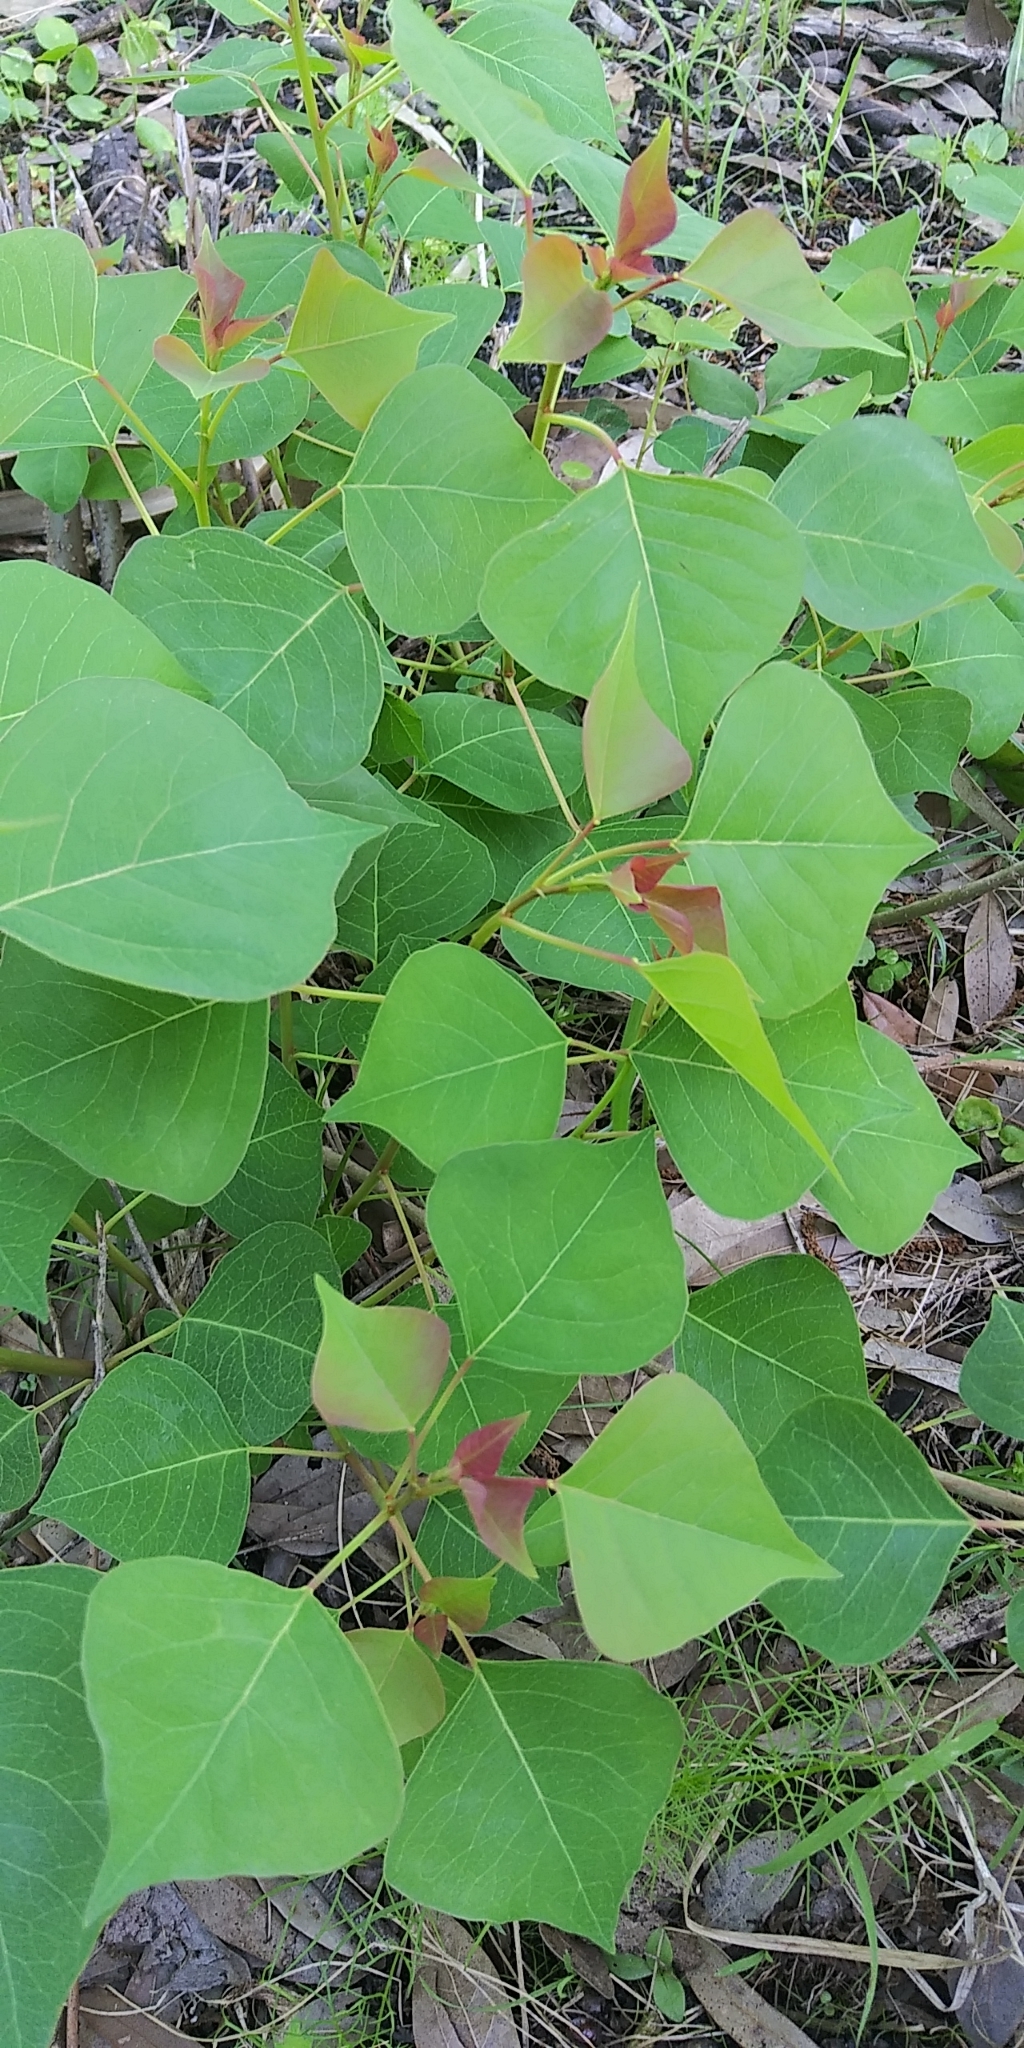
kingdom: Plantae
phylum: Tracheophyta
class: Magnoliopsida
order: Malpighiales
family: Euphorbiaceae
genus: Triadica
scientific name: Triadica sebifera
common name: Chinese tallow
